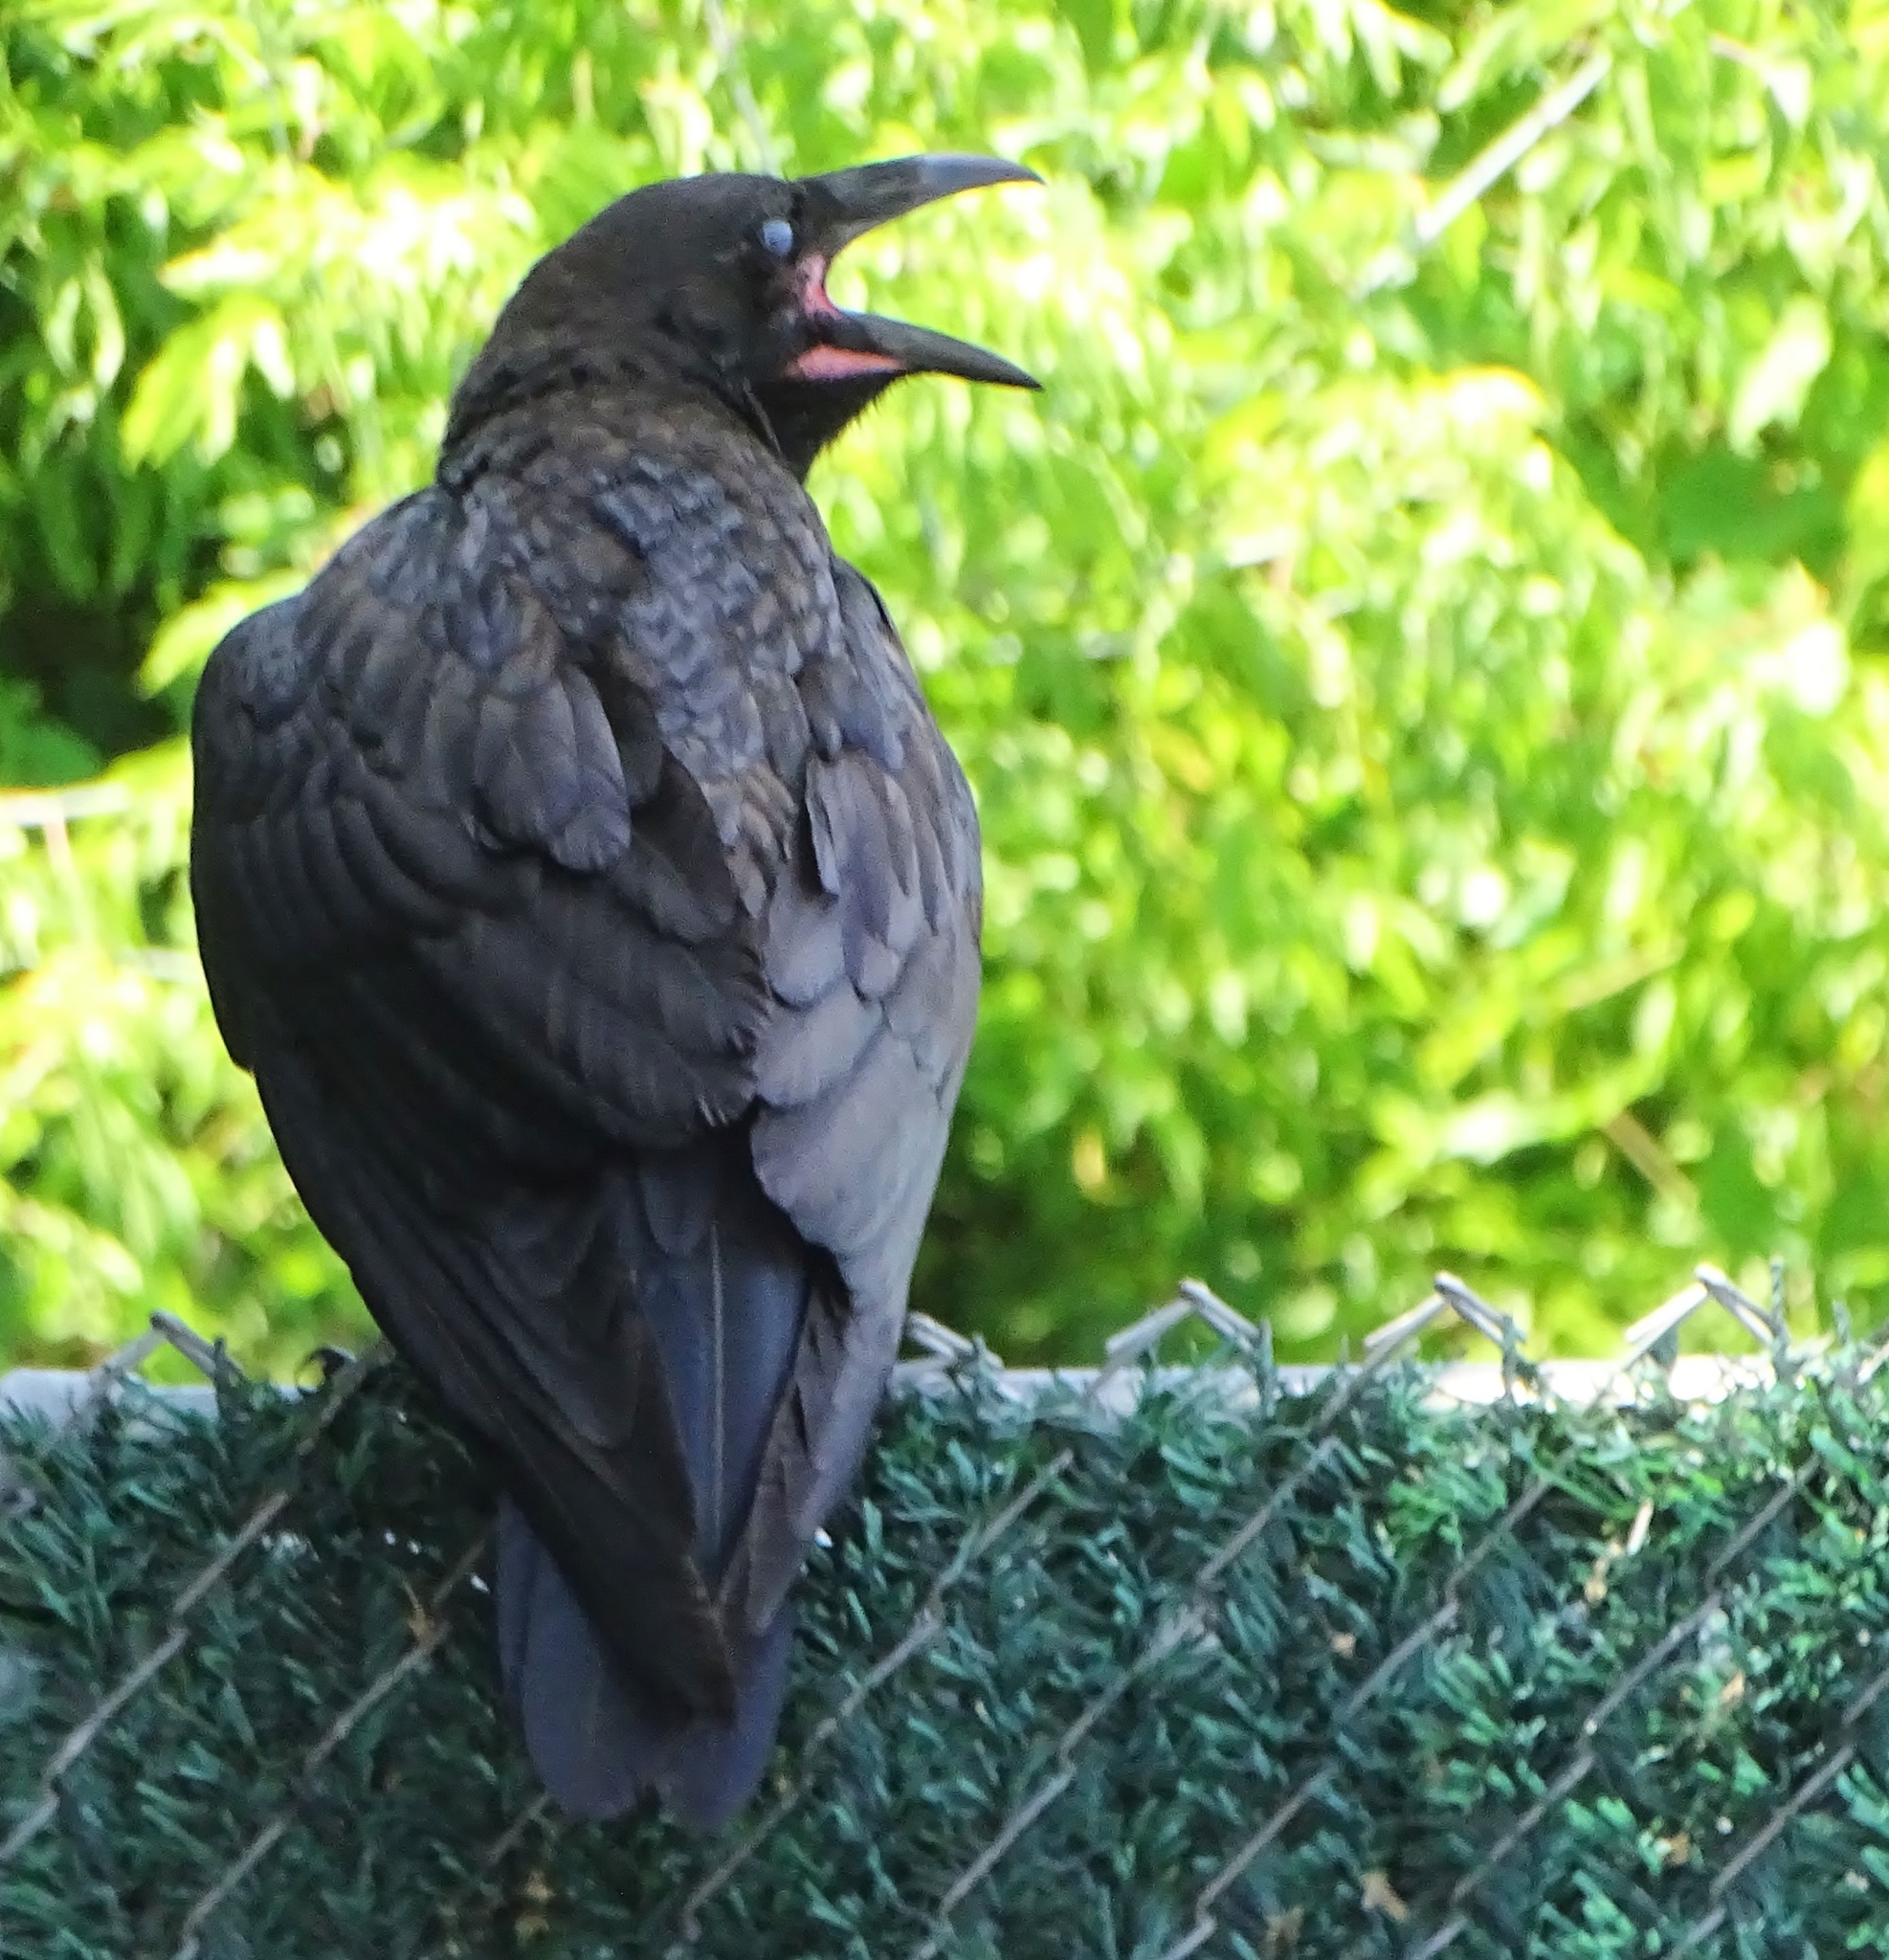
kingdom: Animalia
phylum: Chordata
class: Aves
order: Passeriformes
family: Corvidae
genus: Corvus
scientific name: Corvus corax
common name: Common raven
